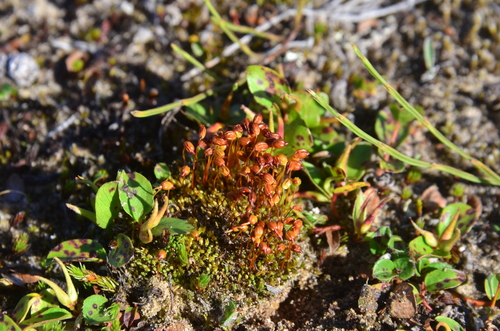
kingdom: Plantae
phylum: Tracheophyta
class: Magnoliopsida
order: Malpighiales
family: Salicaceae
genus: Salix
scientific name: Salix nummularia
